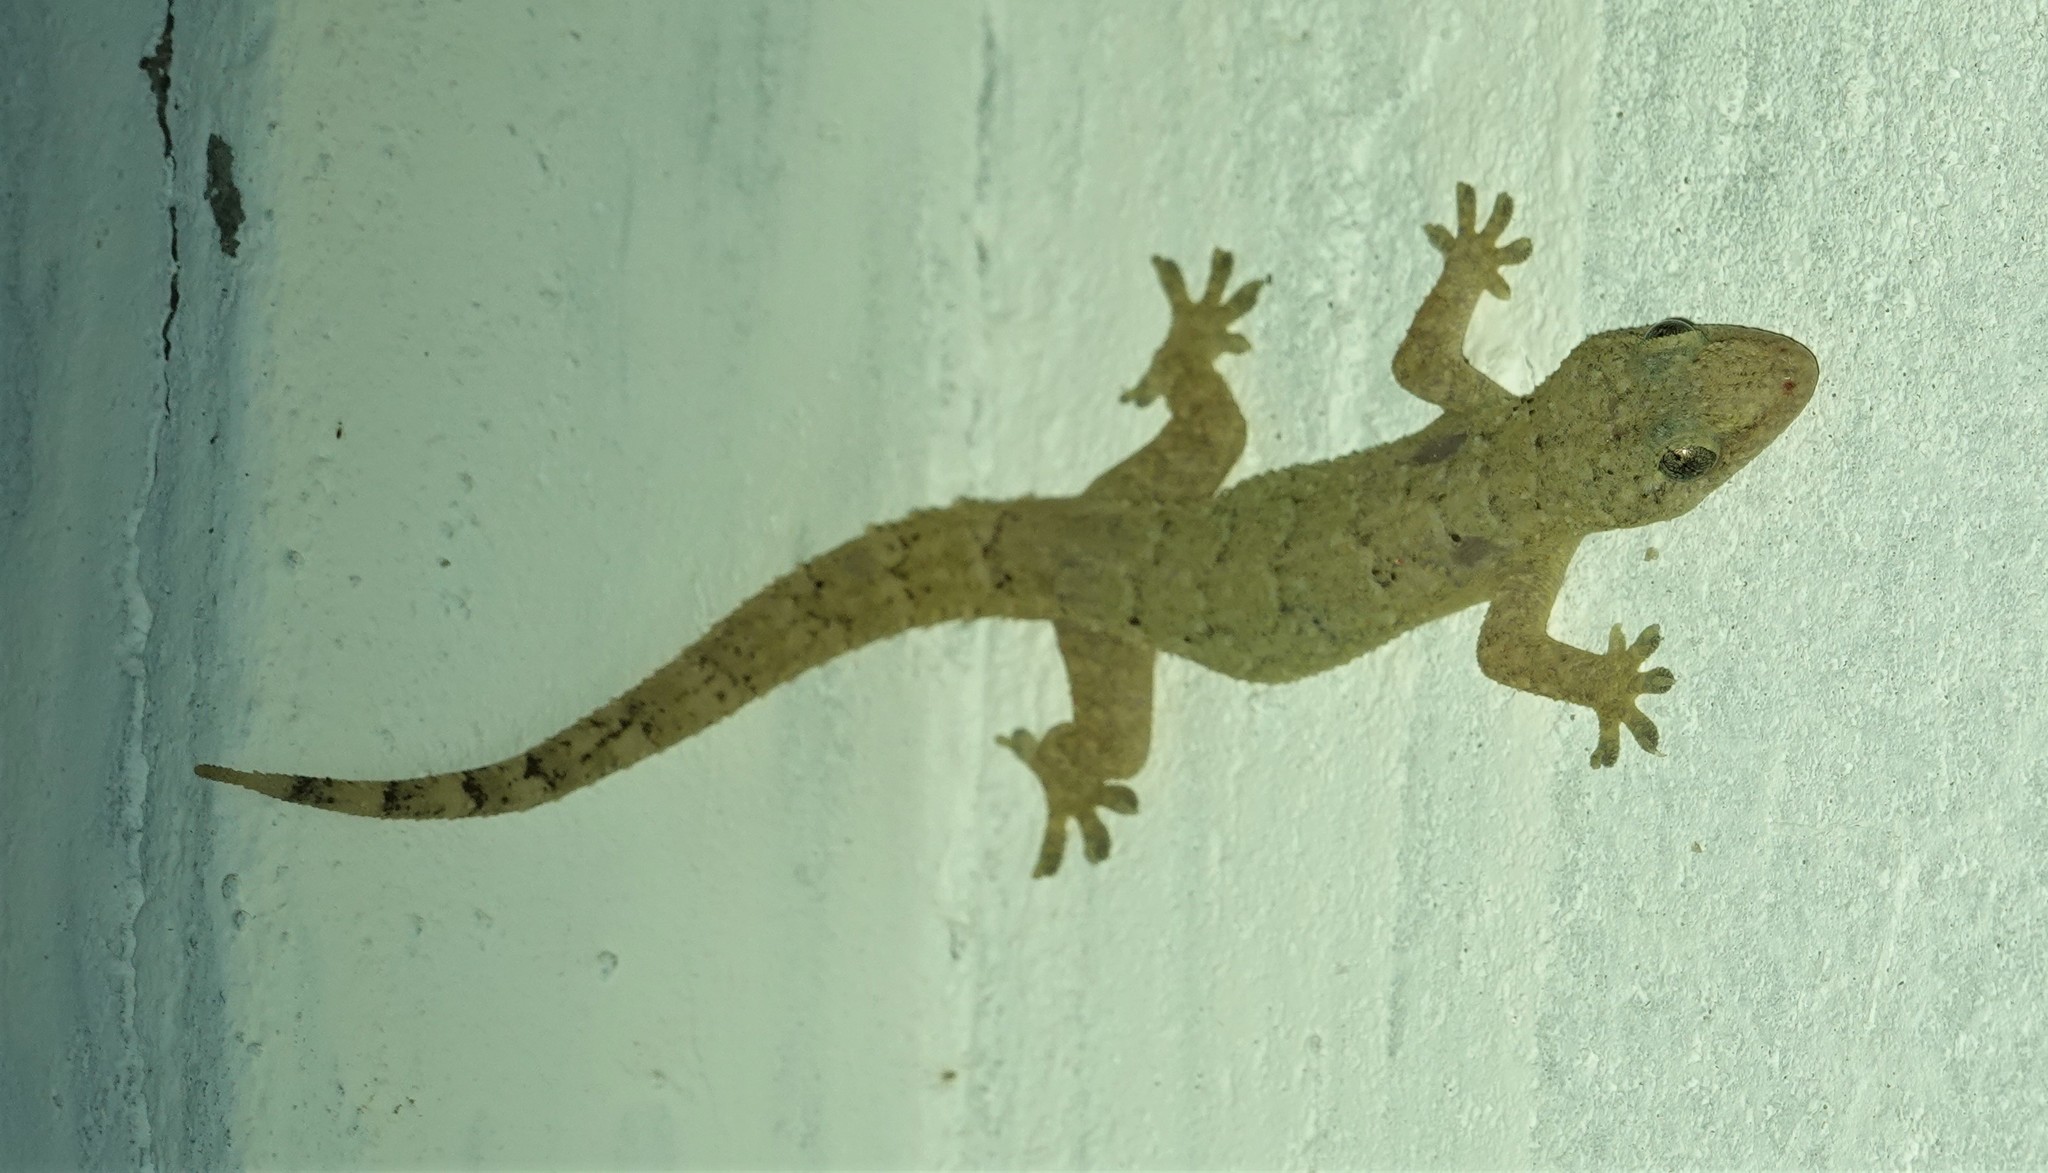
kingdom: Animalia
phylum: Chordata
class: Squamata
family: Gekkonidae
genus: Hemidactylus
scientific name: Hemidactylus palaichthus
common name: Antilles leaf-toed gecko
